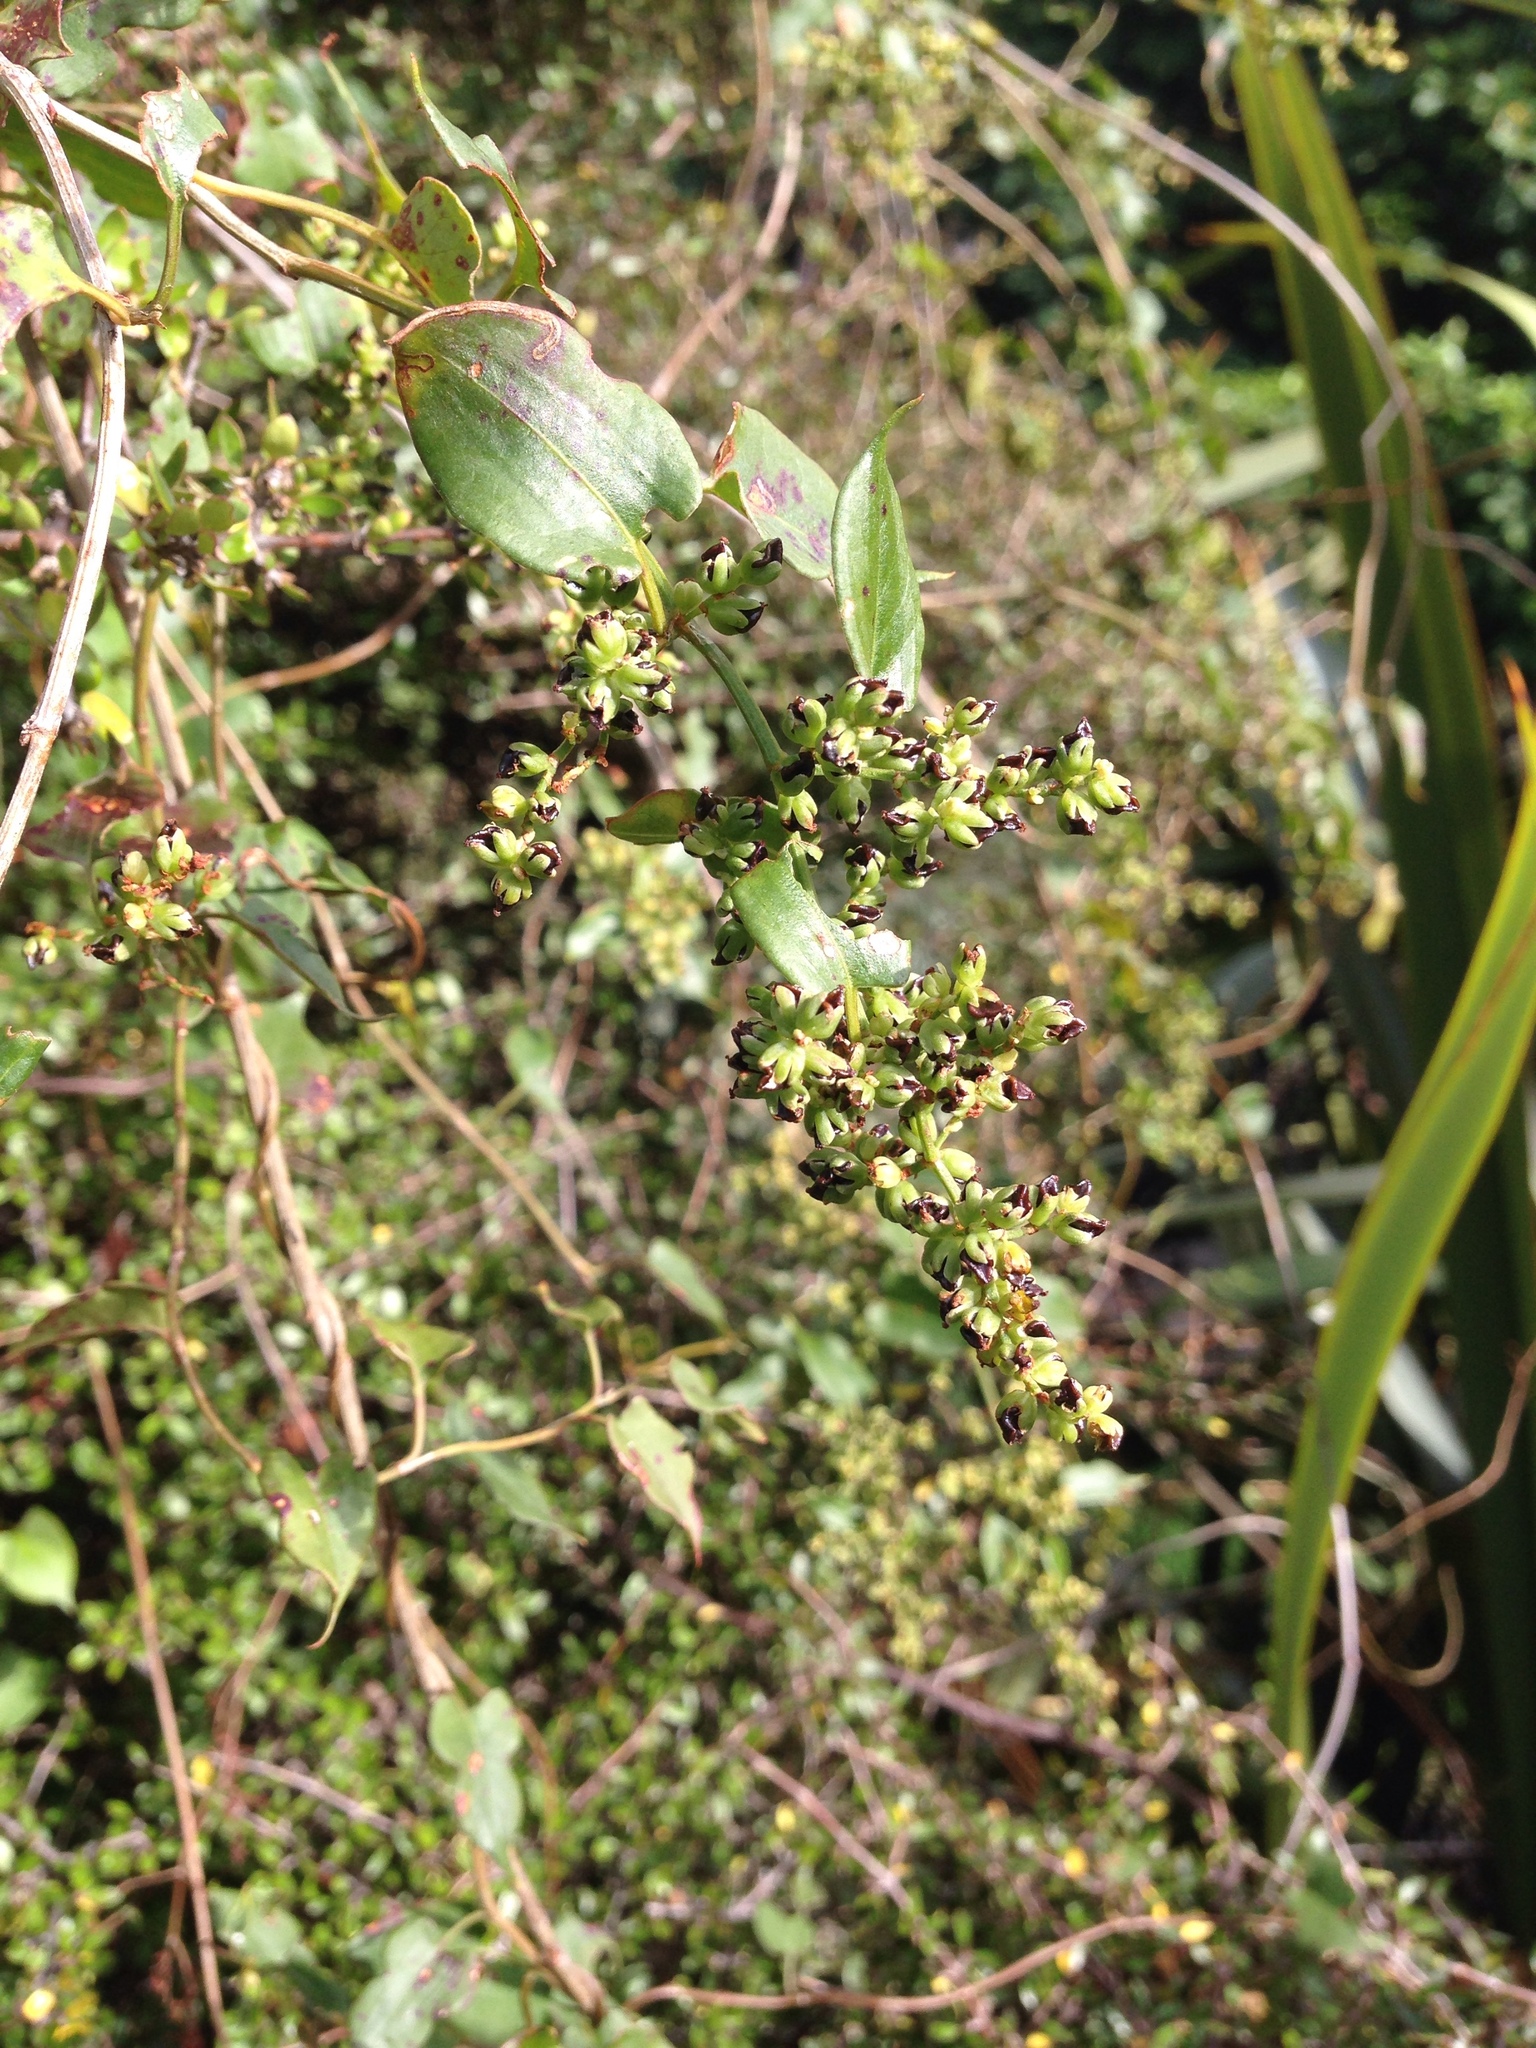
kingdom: Plantae
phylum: Tracheophyta
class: Magnoliopsida
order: Caryophyllales
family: Polygonaceae
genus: Muehlenbeckia
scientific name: Muehlenbeckia australis
